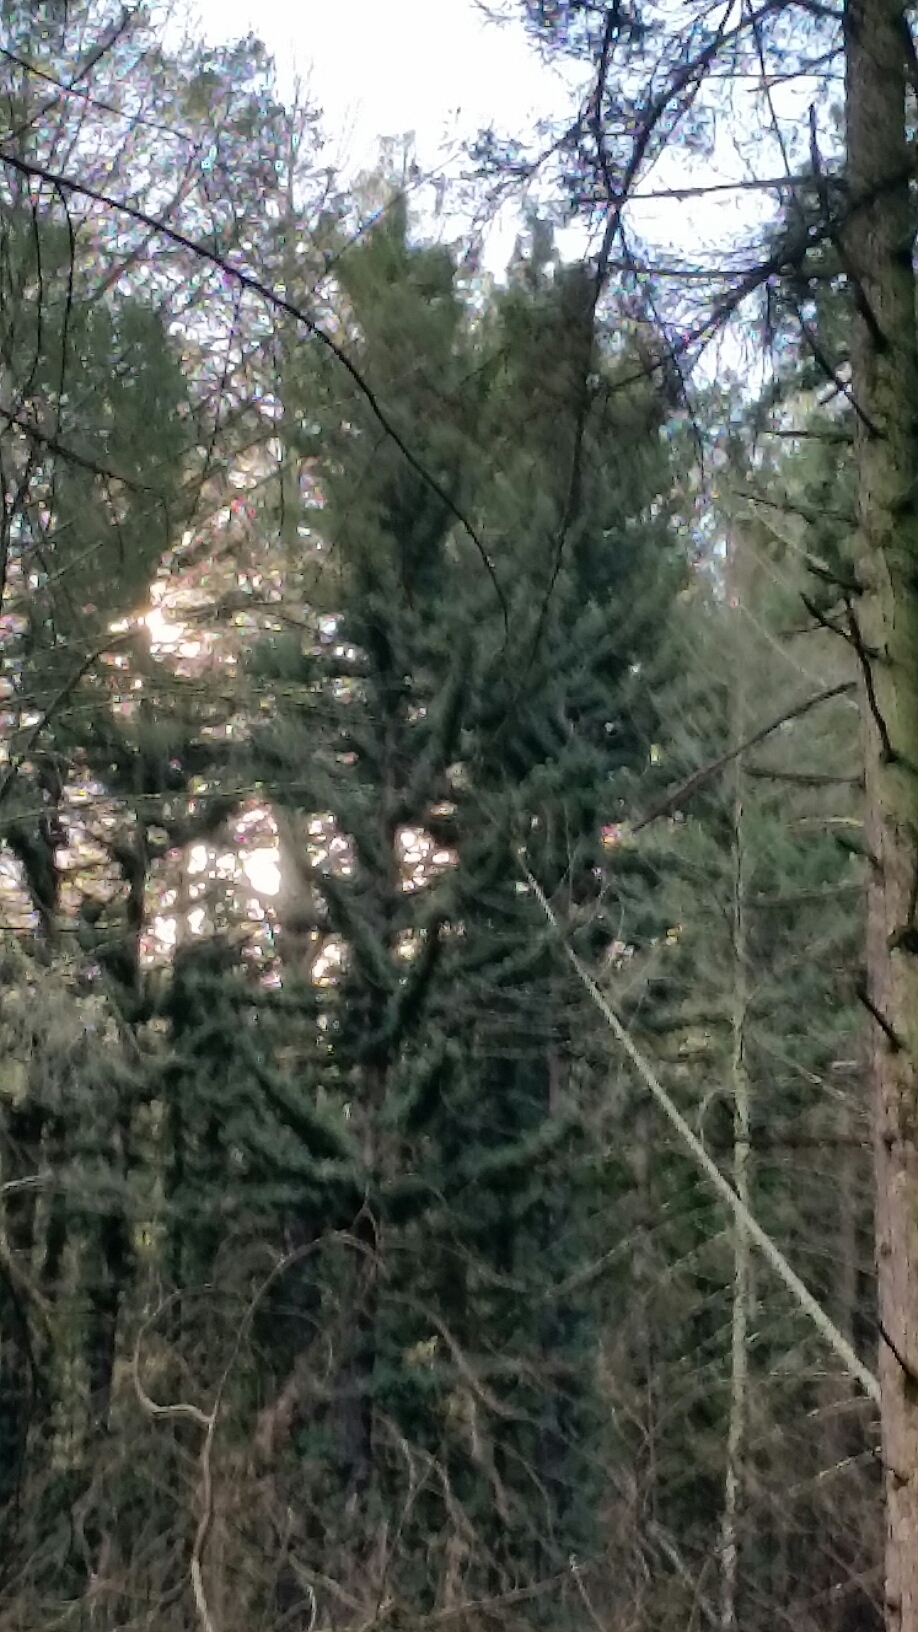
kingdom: Plantae
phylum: Tracheophyta
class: Pinopsida
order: Pinales
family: Cupressaceae
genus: Sequoia
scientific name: Sequoia sempervirens
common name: Coast redwood
